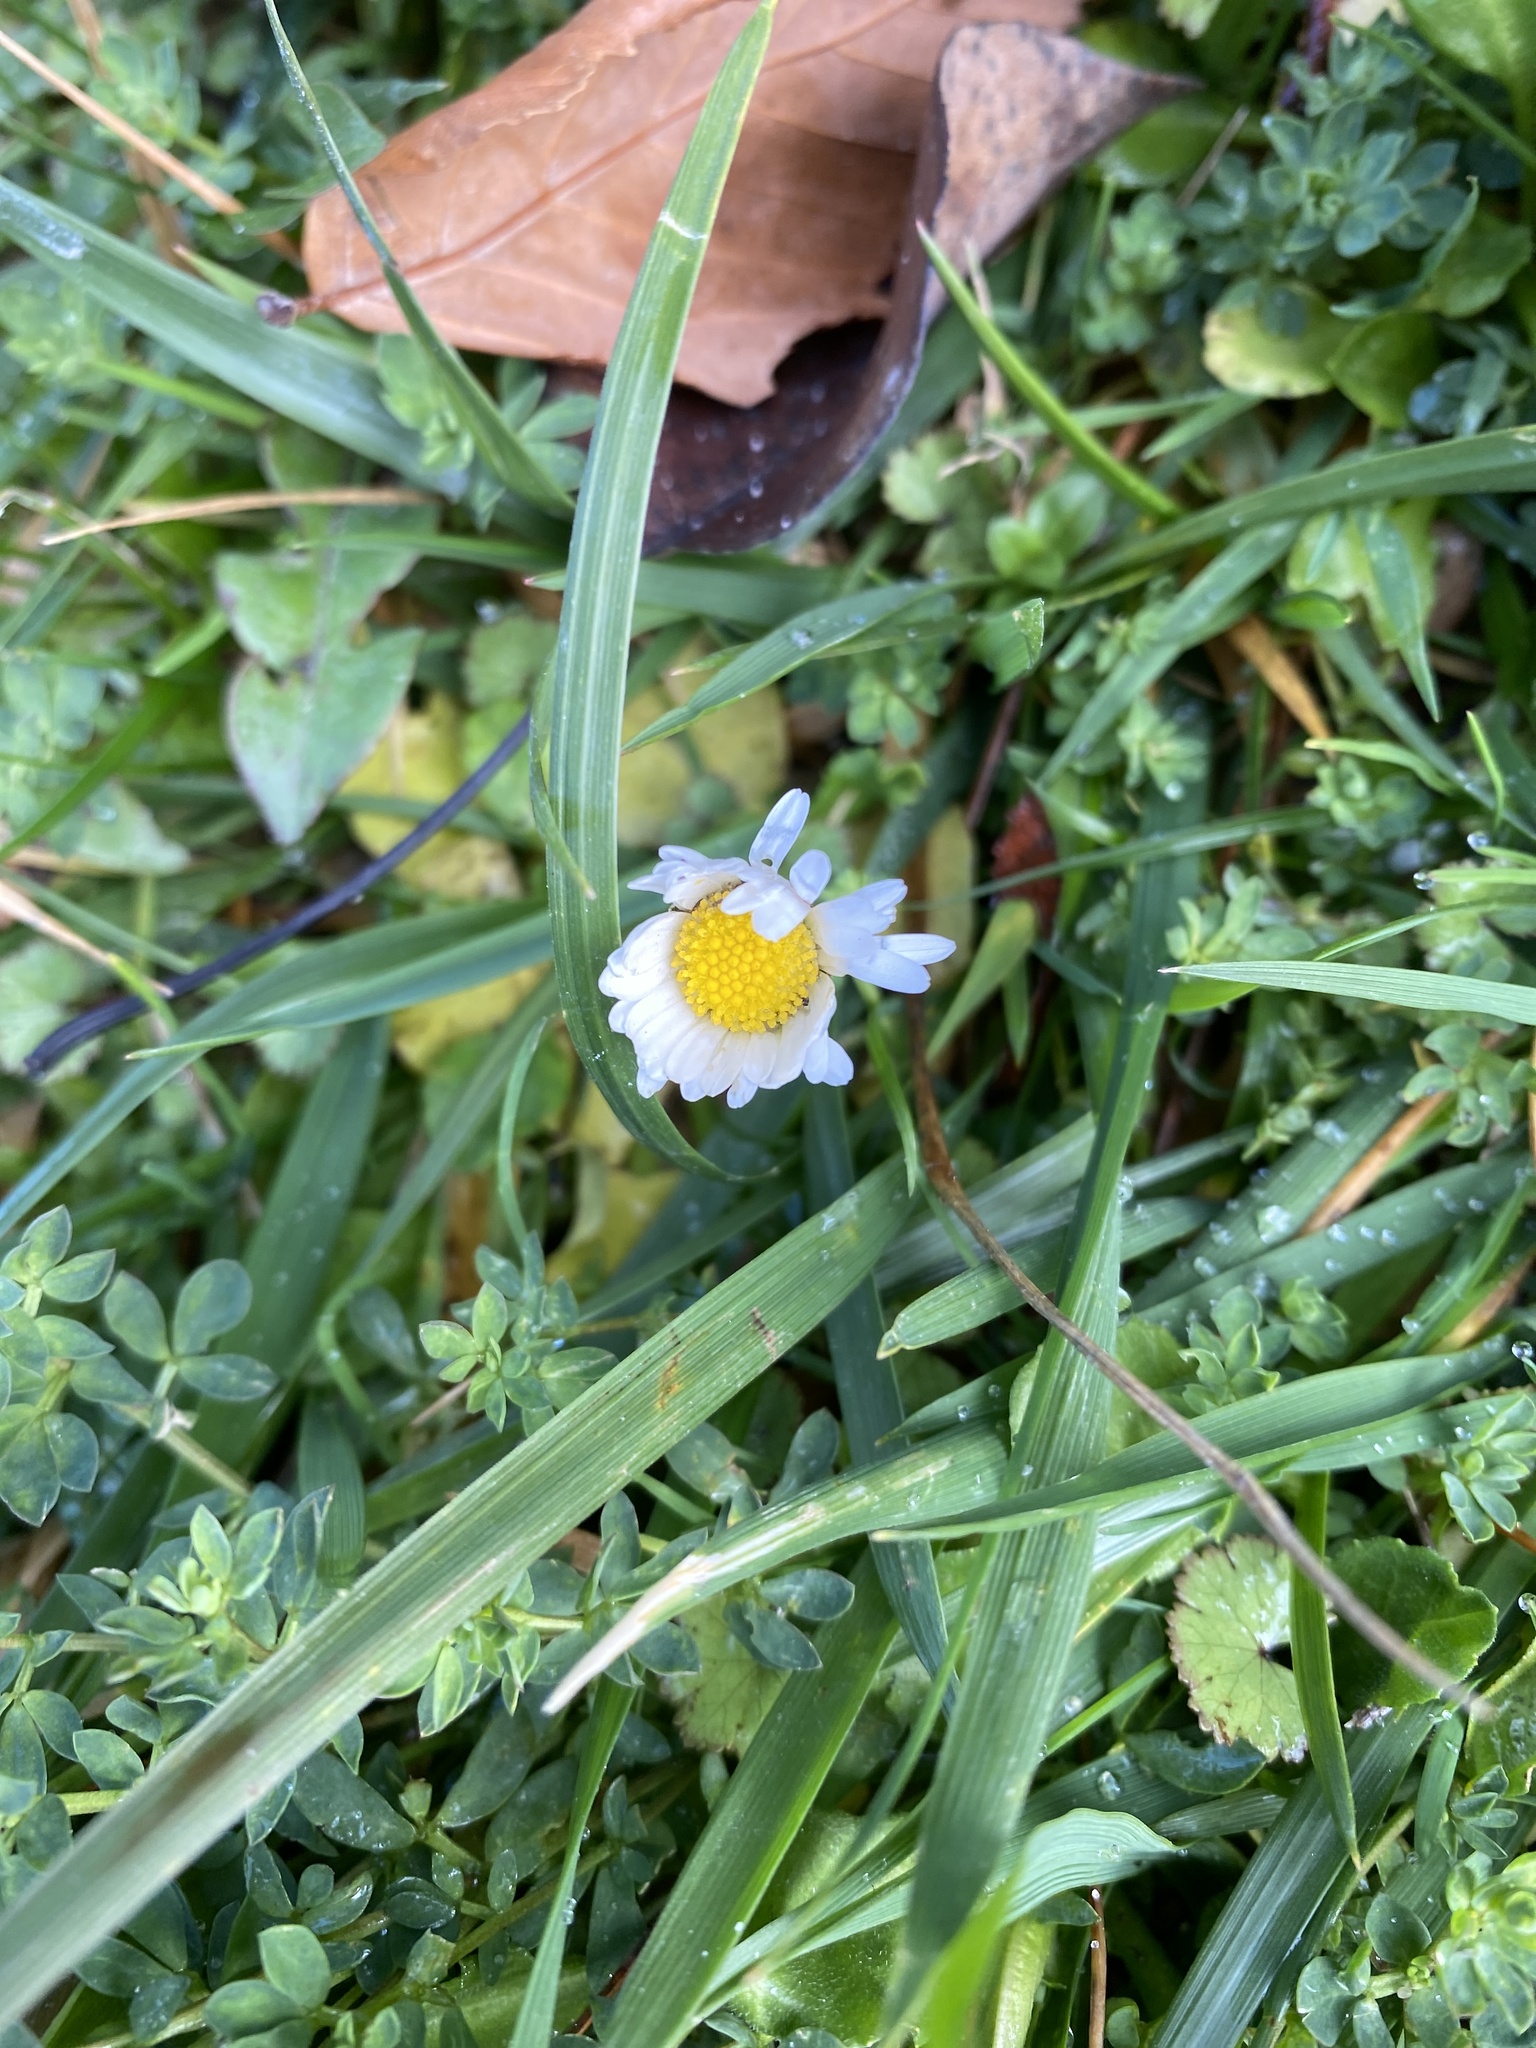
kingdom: Plantae
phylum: Tracheophyta
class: Magnoliopsida
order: Asterales
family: Asteraceae
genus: Bellis
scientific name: Bellis perennis
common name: Lawndaisy
